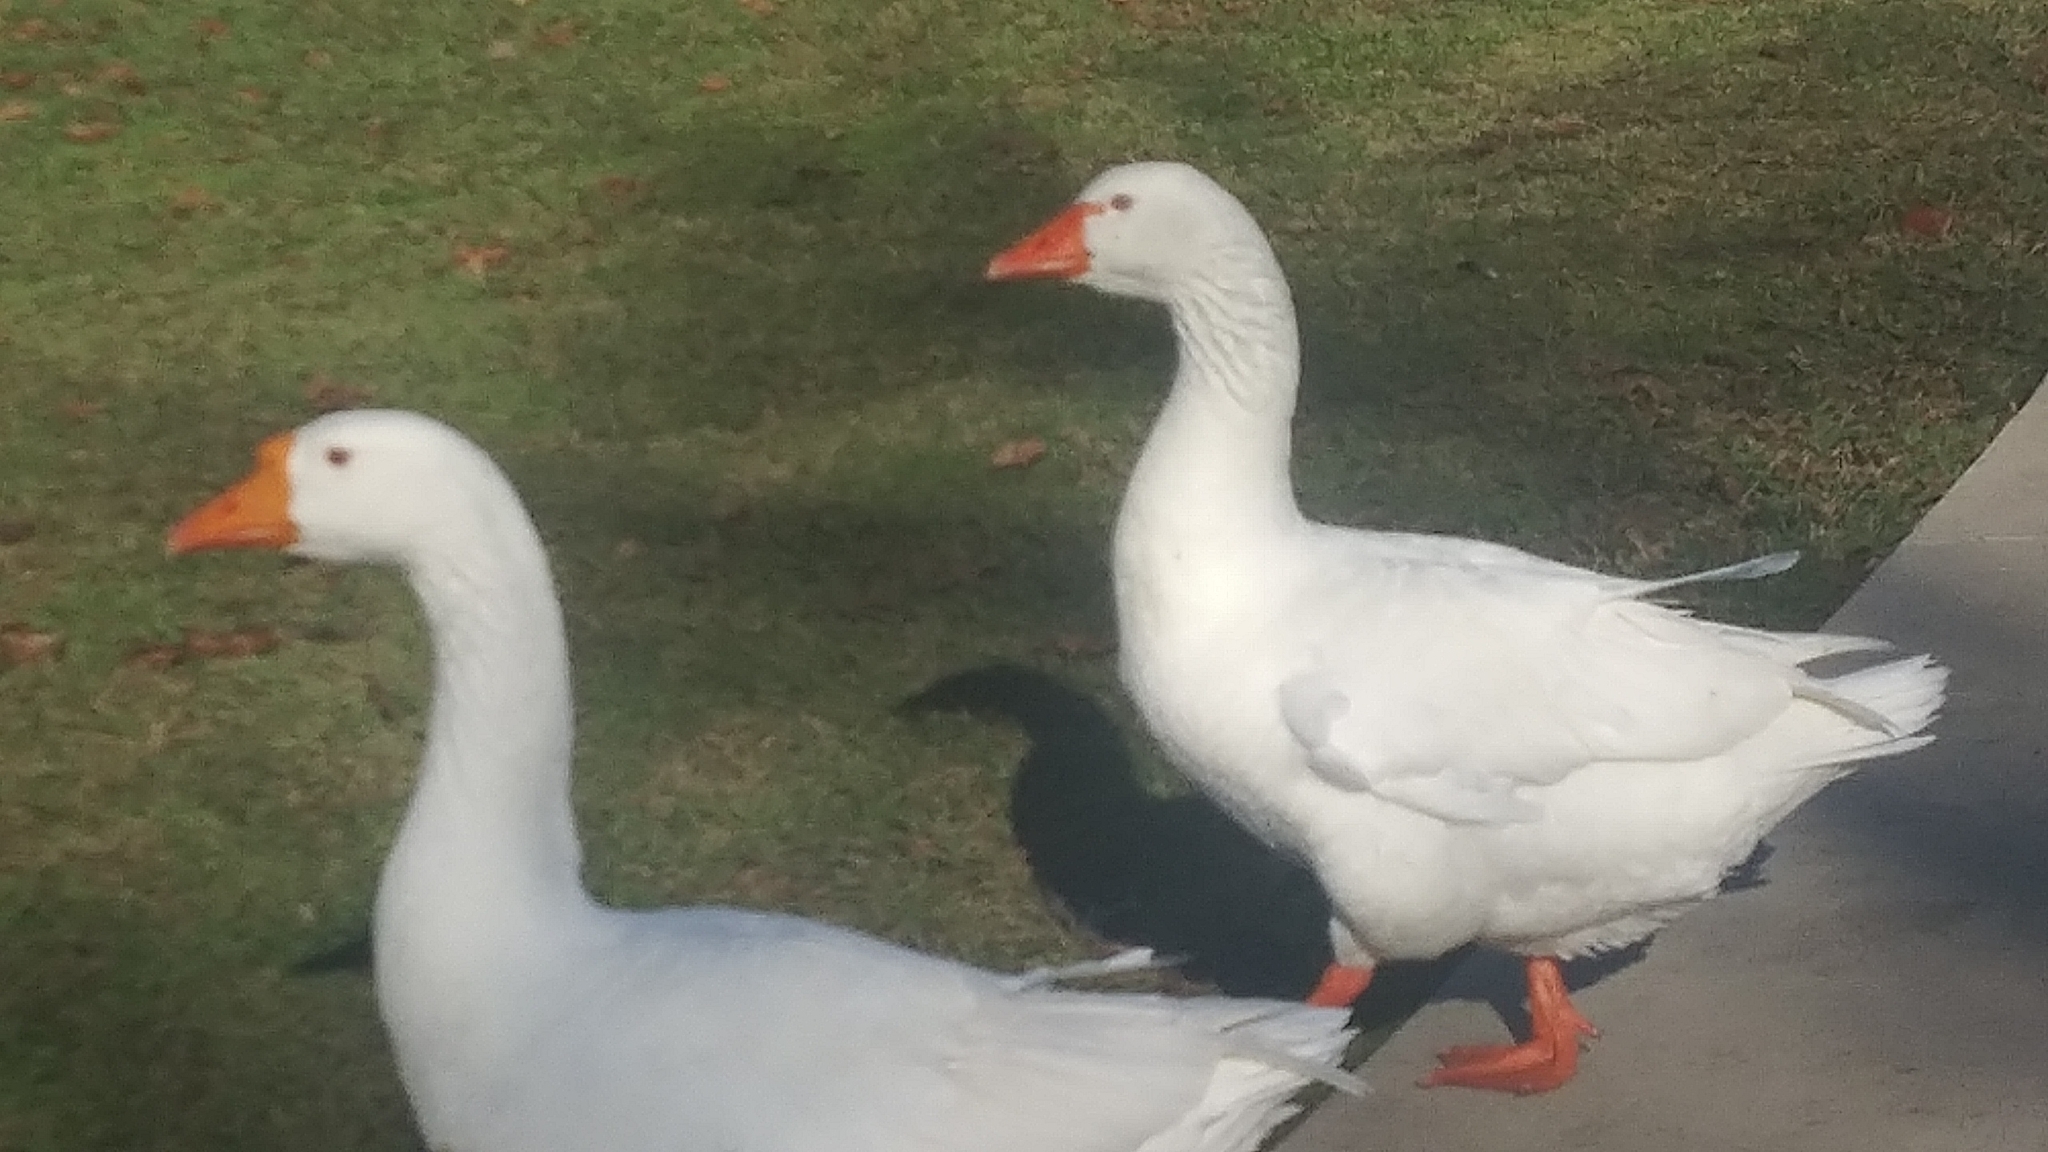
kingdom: Animalia
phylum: Chordata
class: Aves
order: Anseriformes
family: Anatidae
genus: Anser
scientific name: Anser anser
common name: Greylag goose
